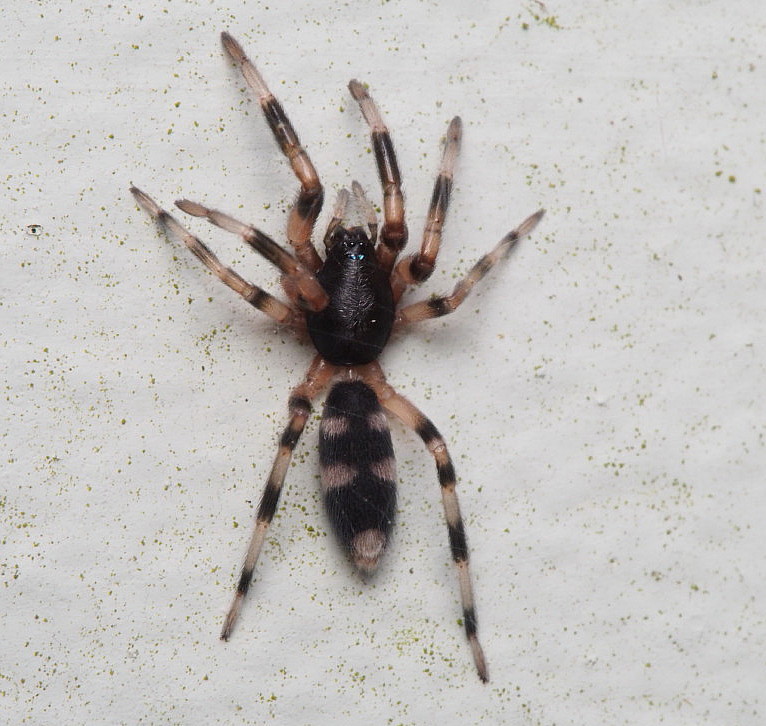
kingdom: Animalia
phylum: Arthropoda
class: Arachnida
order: Araneae
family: Lamponidae
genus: Lampona
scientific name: Lampona murina
